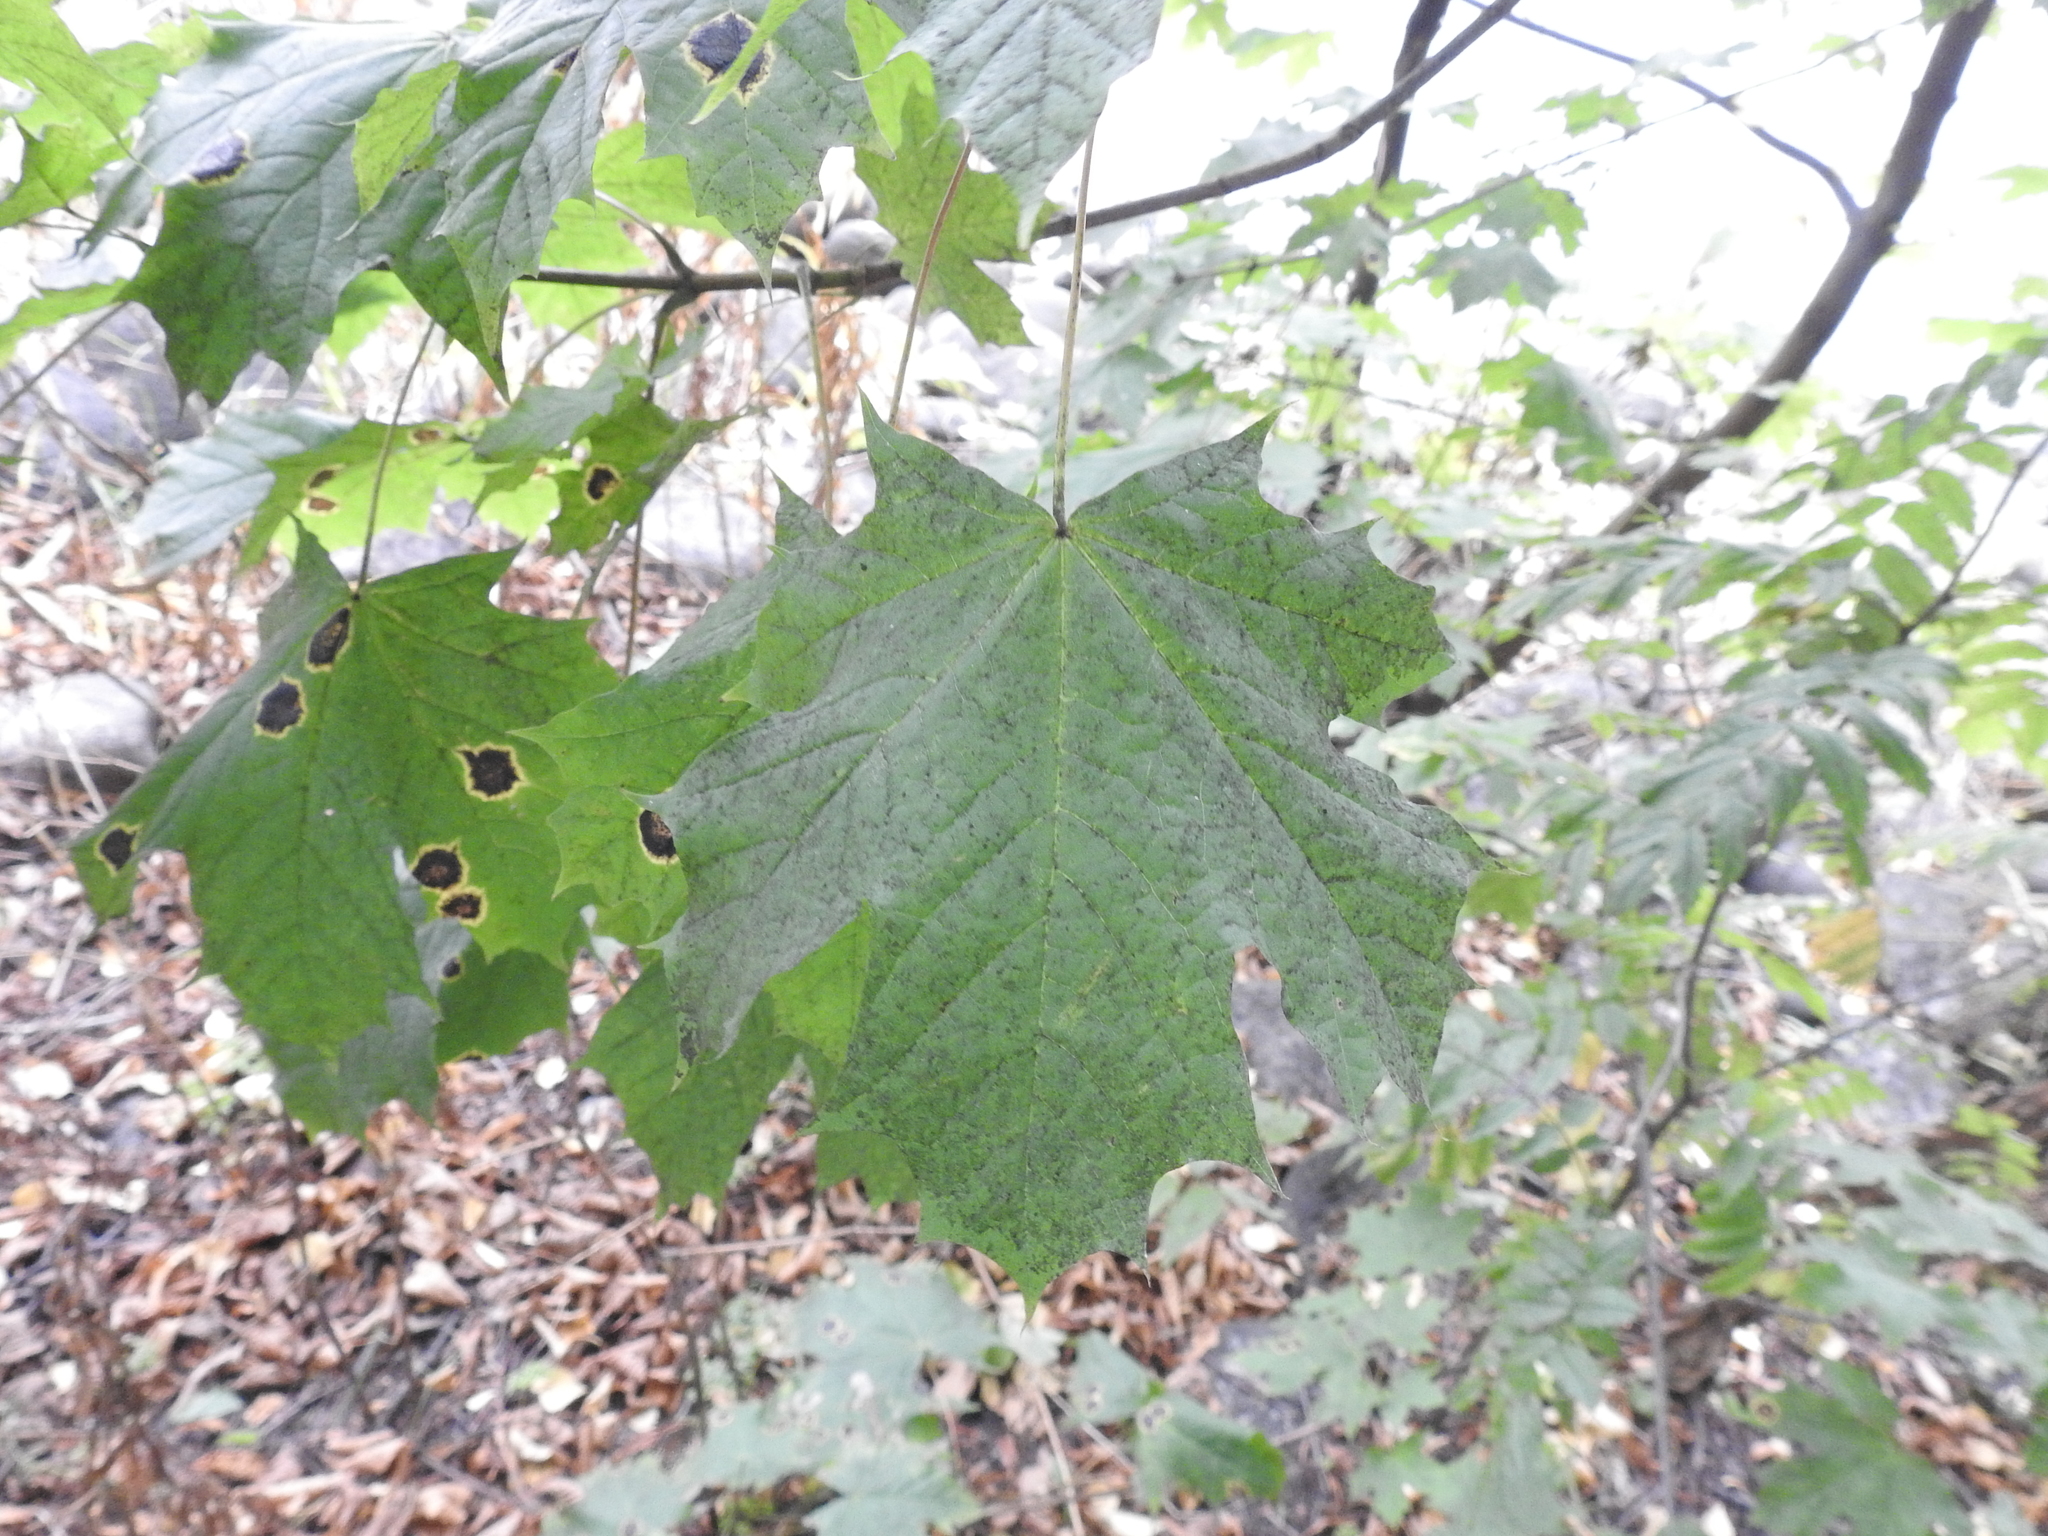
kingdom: Plantae
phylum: Tracheophyta
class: Magnoliopsida
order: Sapindales
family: Sapindaceae
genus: Acer
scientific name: Acer platanoides
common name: Norway maple
